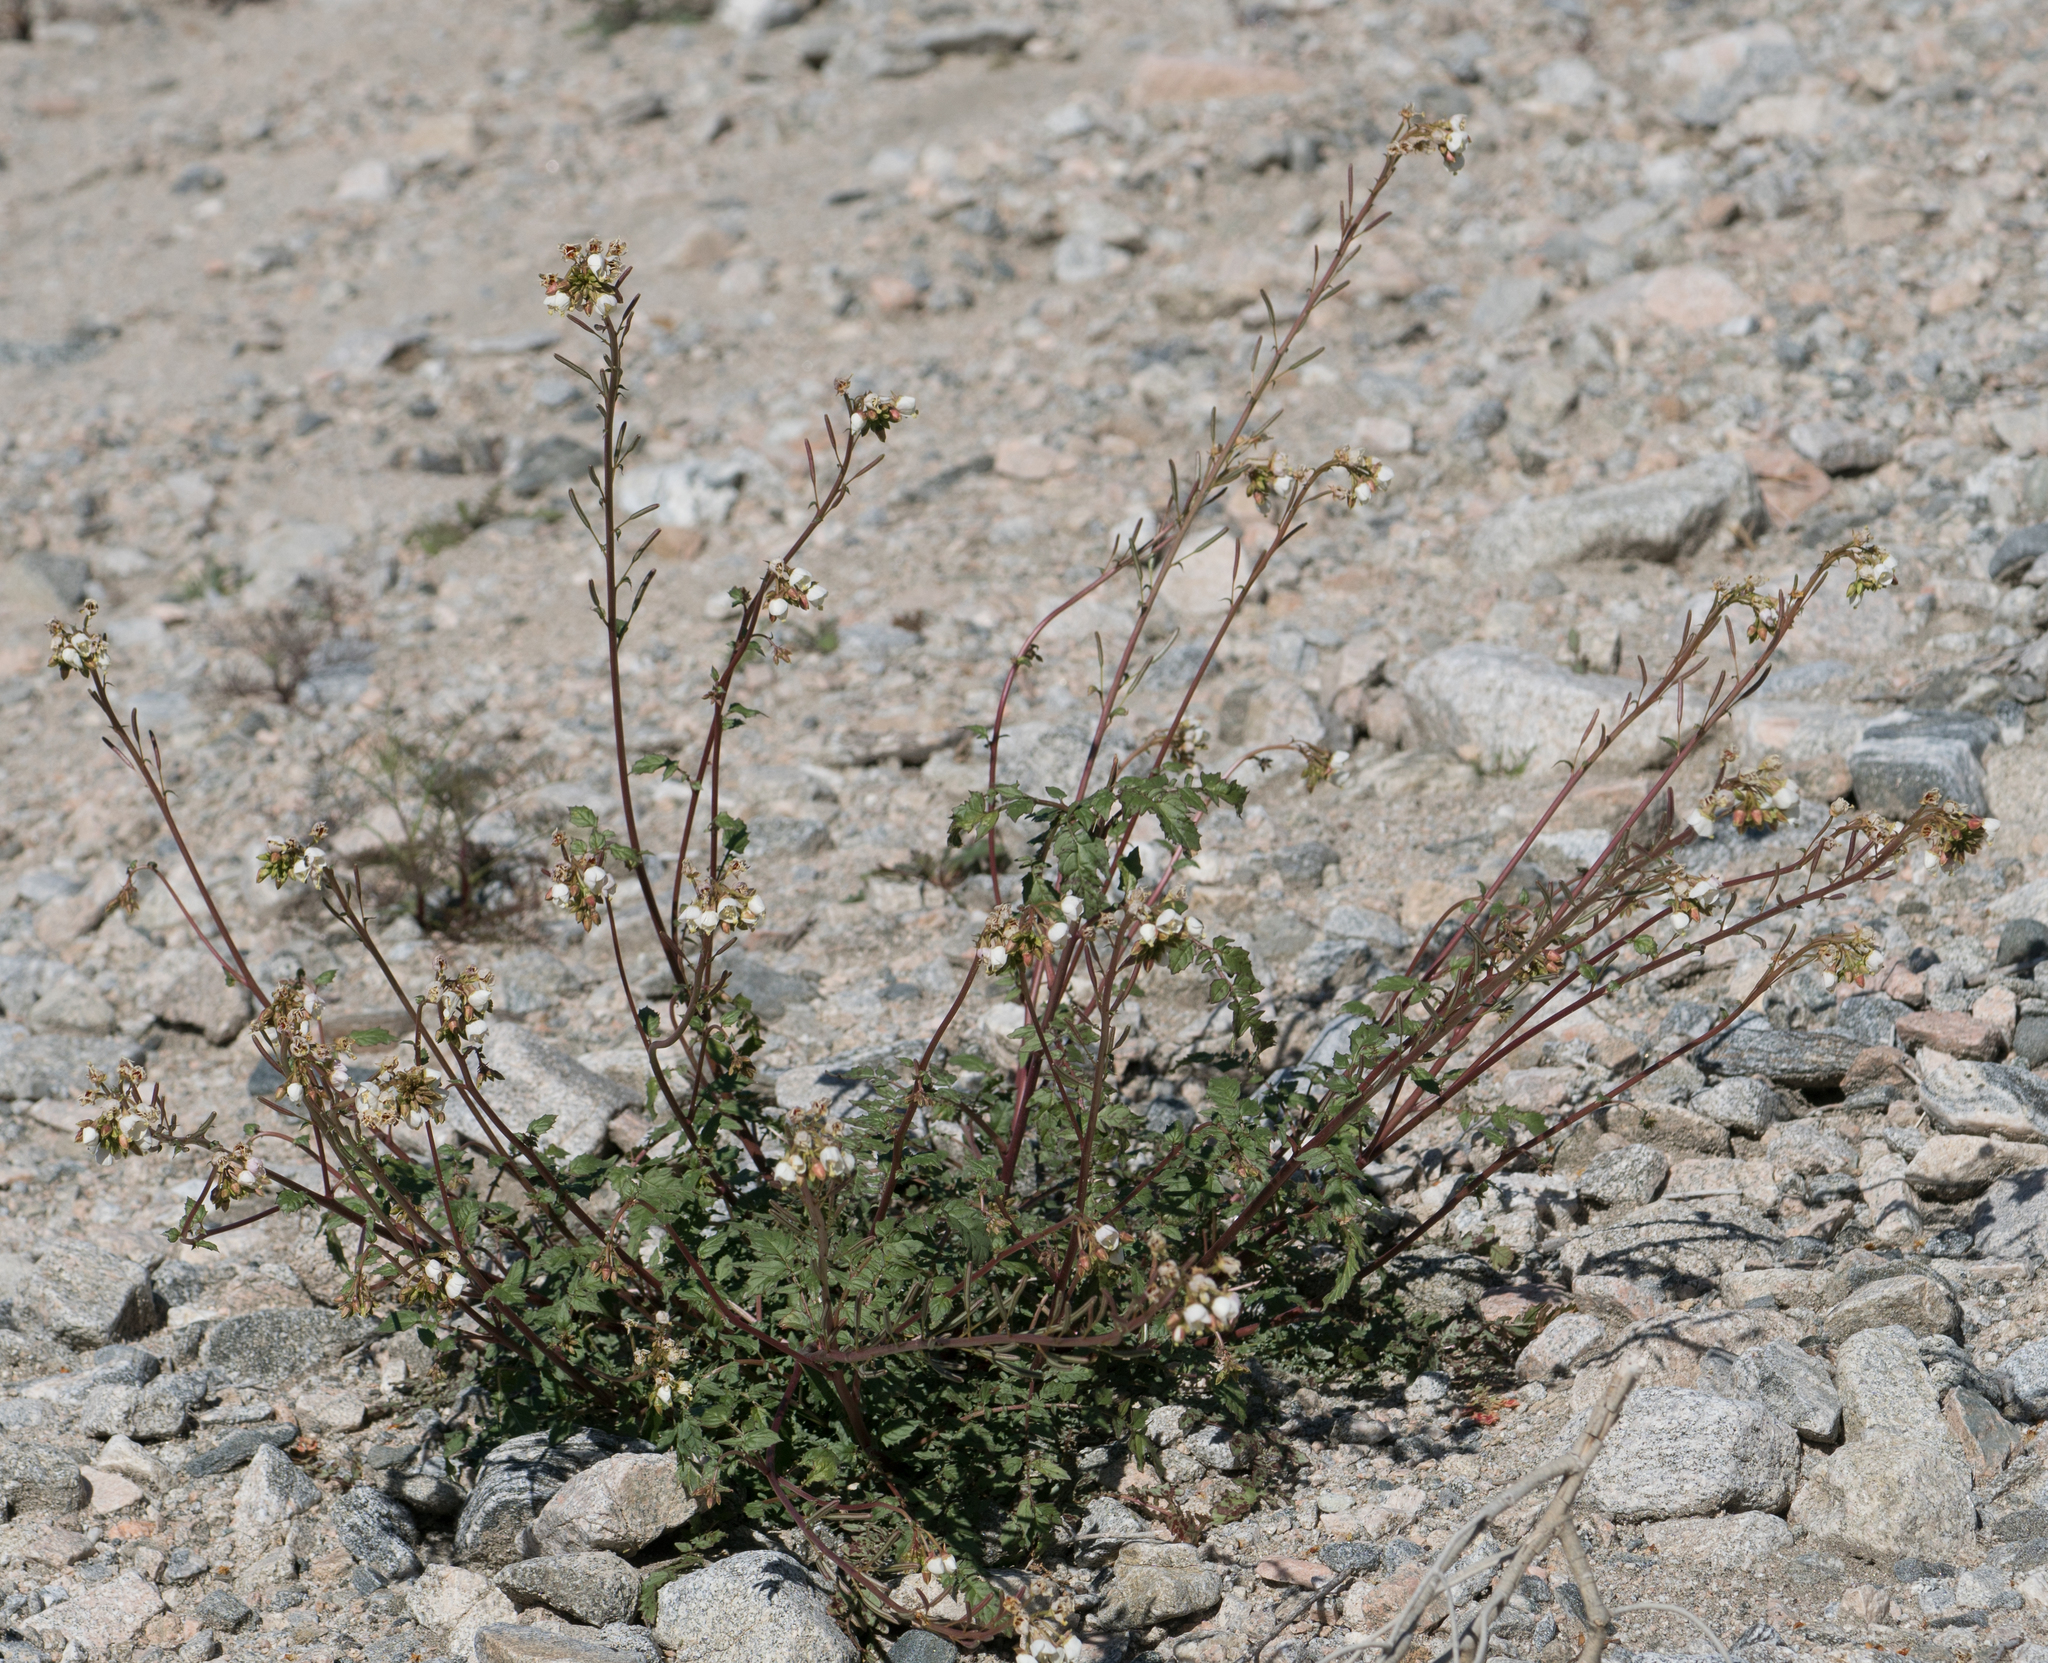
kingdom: Plantae
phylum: Tracheophyta
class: Magnoliopsida
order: Myrtales
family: Onagraceae
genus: Chylismia
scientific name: Chylismia claviformis
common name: Browneyes
